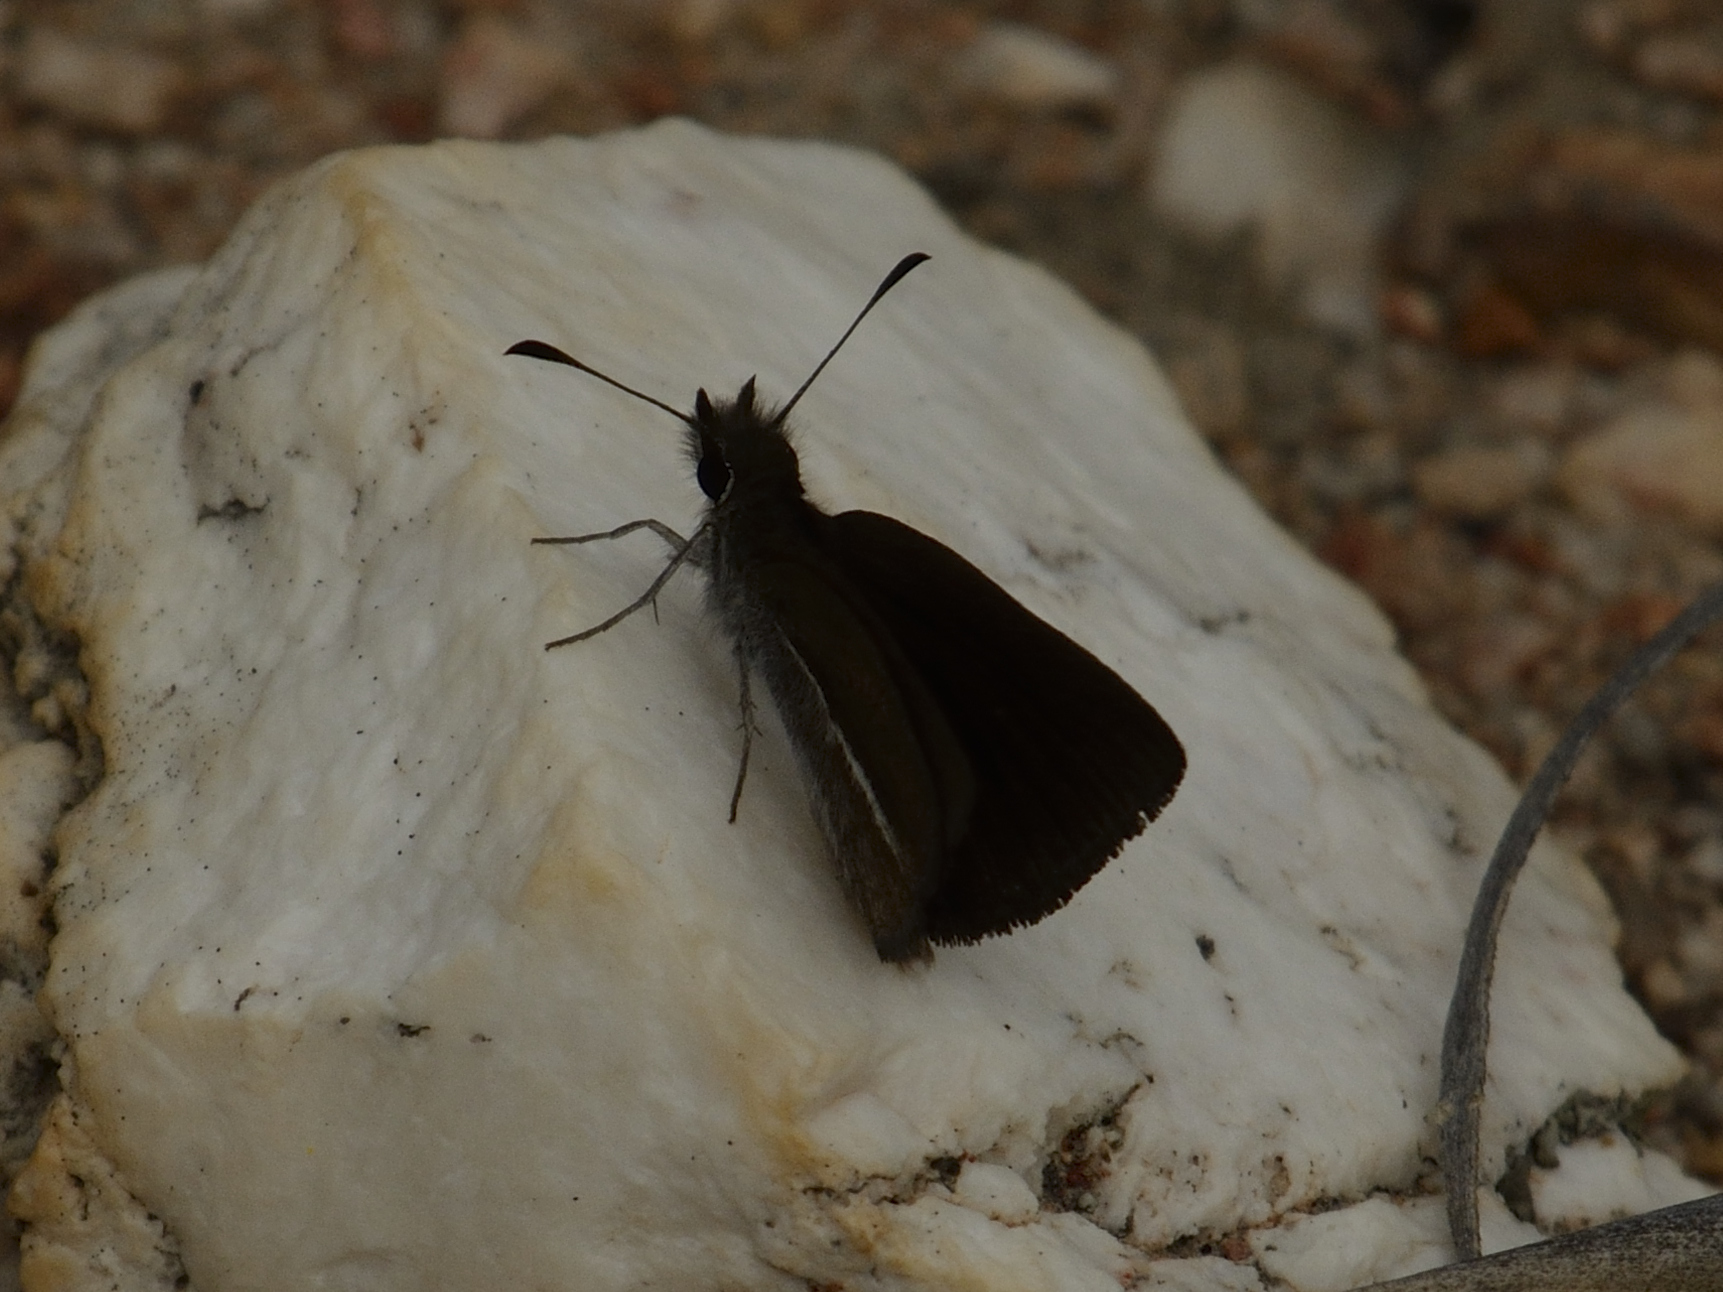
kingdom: Animalia
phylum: Arthropoda
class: Insecta
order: Lepidoptera
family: Hesperiidae
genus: Tsitana
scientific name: Tsitana tulbagha
